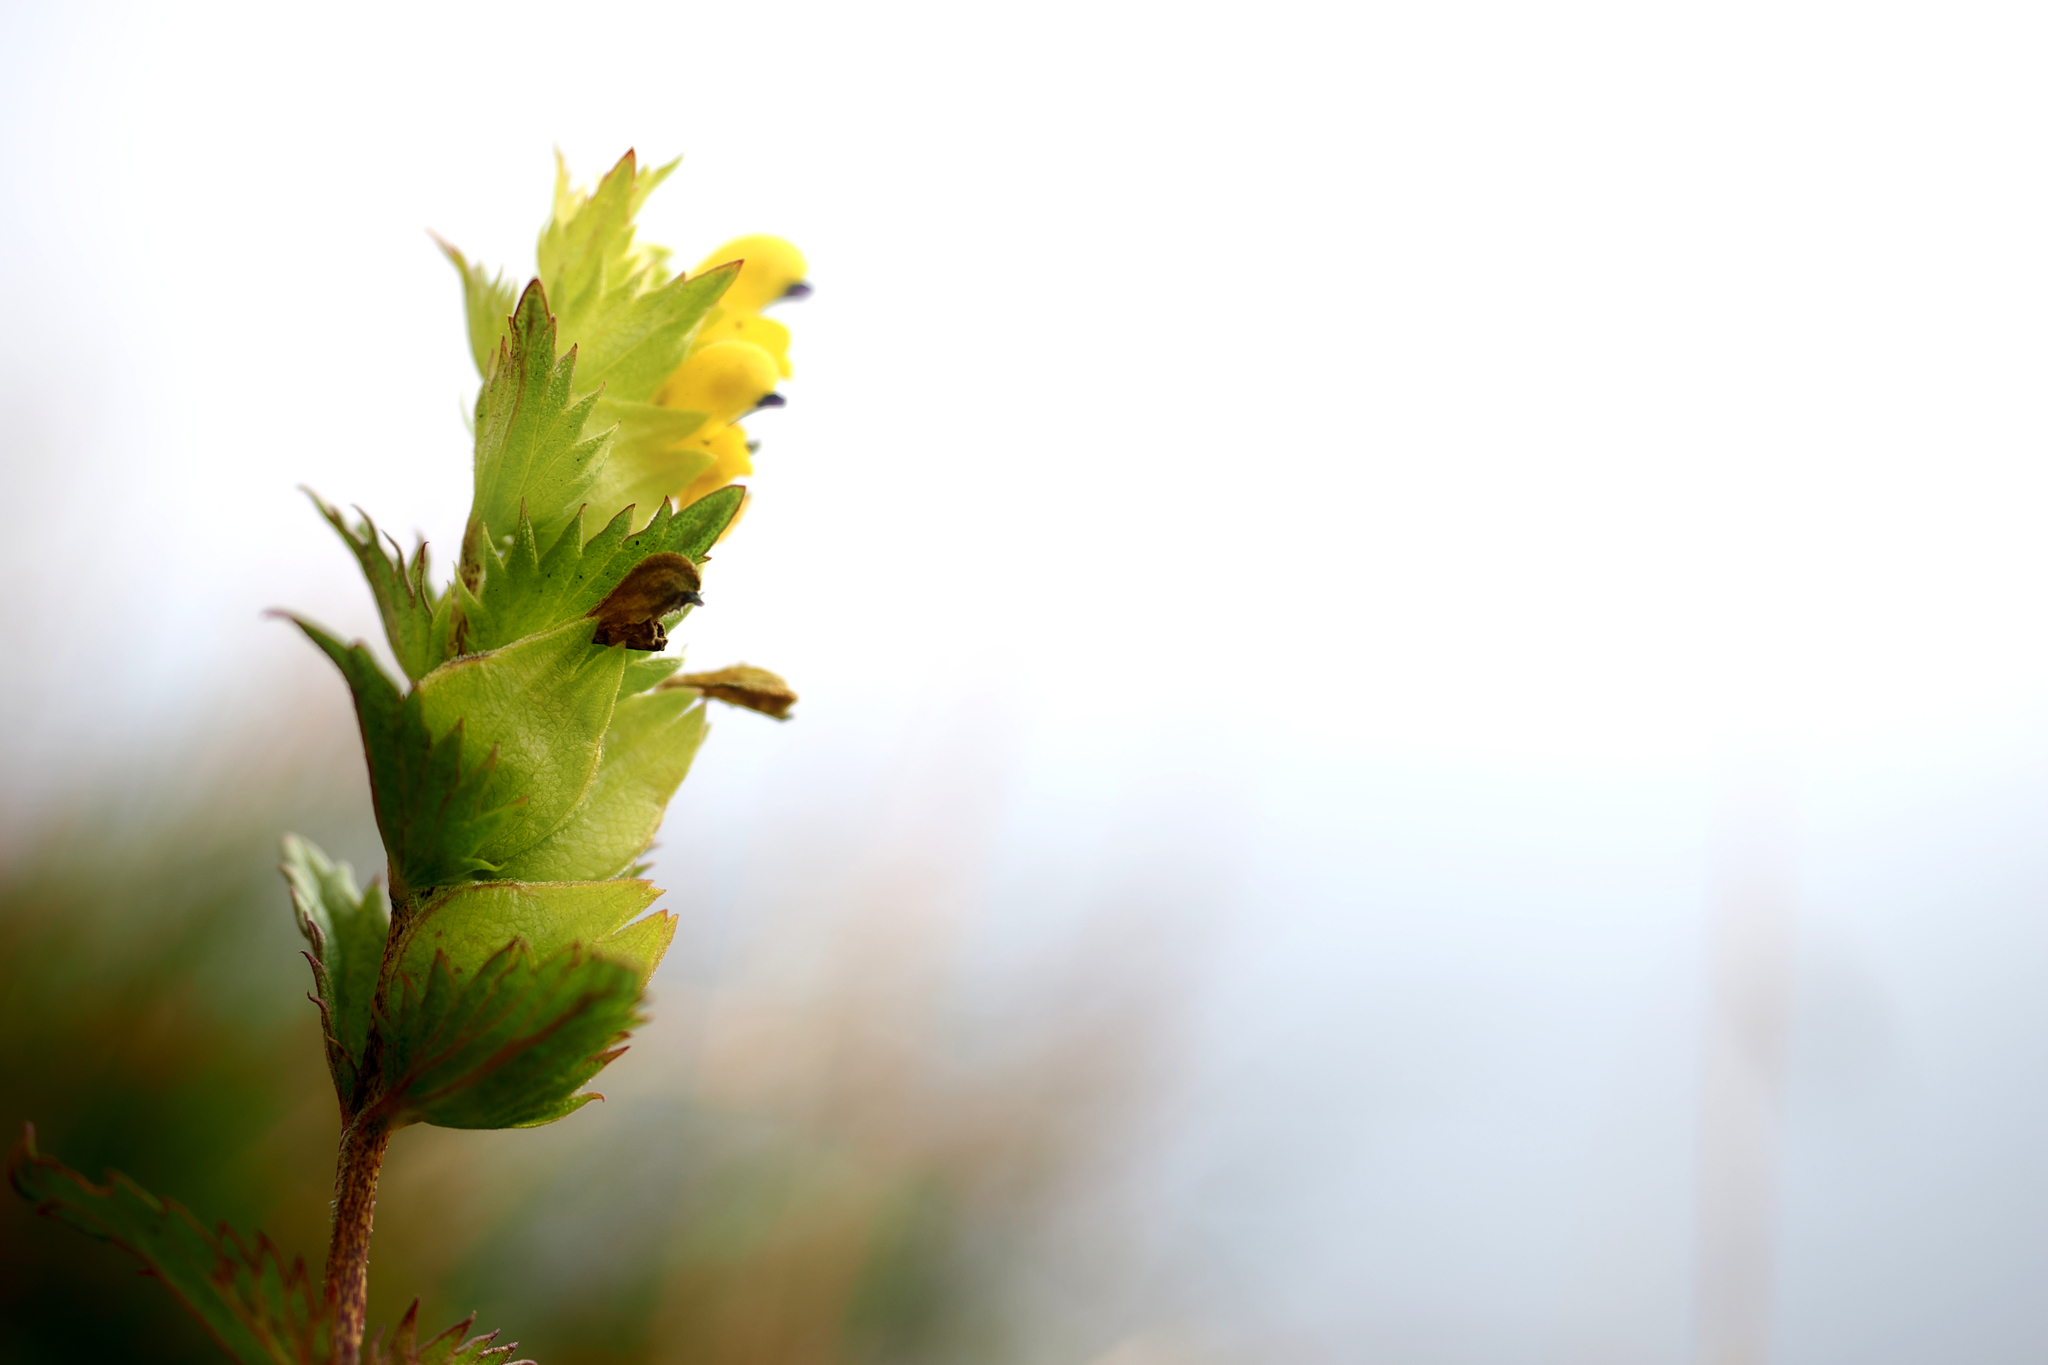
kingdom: Plantae
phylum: Tracheophyta
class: Magnoliopsida
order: Lamiales
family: Orobanchaceae
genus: Rhinanthus
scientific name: Rhinanthus minor
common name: Yellow-rattle
